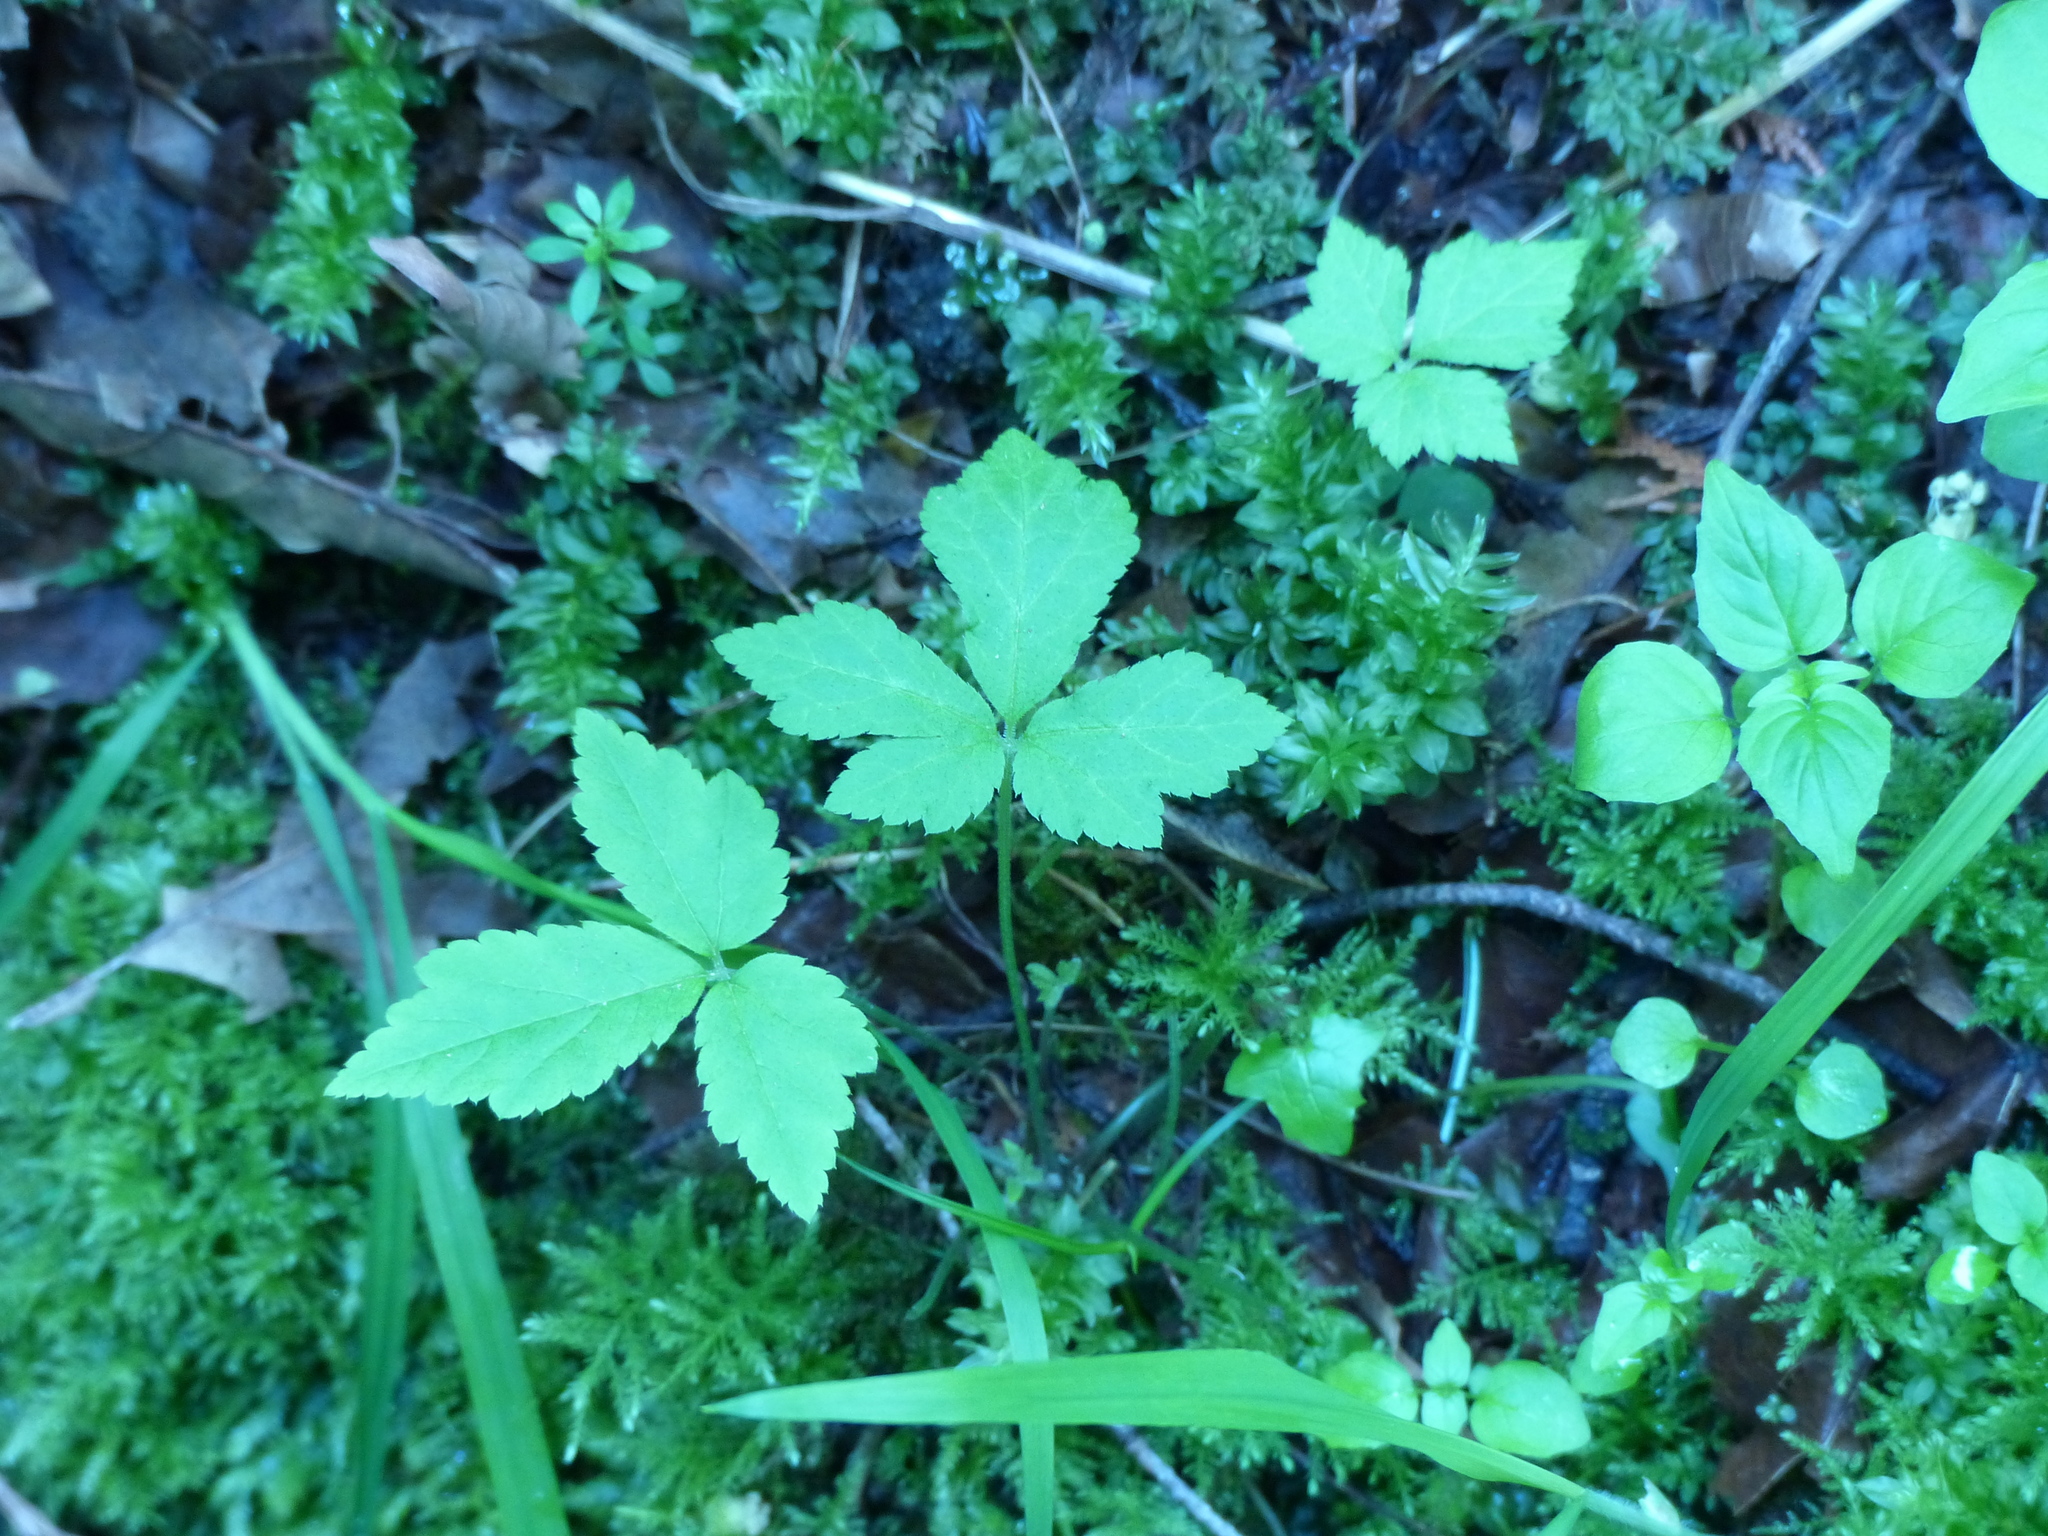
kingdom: Plantae
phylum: Tracheophyta
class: Magnoliopsida
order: Saxifragales
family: Saxifragaceae
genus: Tiarella
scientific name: Tiarella trifoliata
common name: Sugar-scoop
